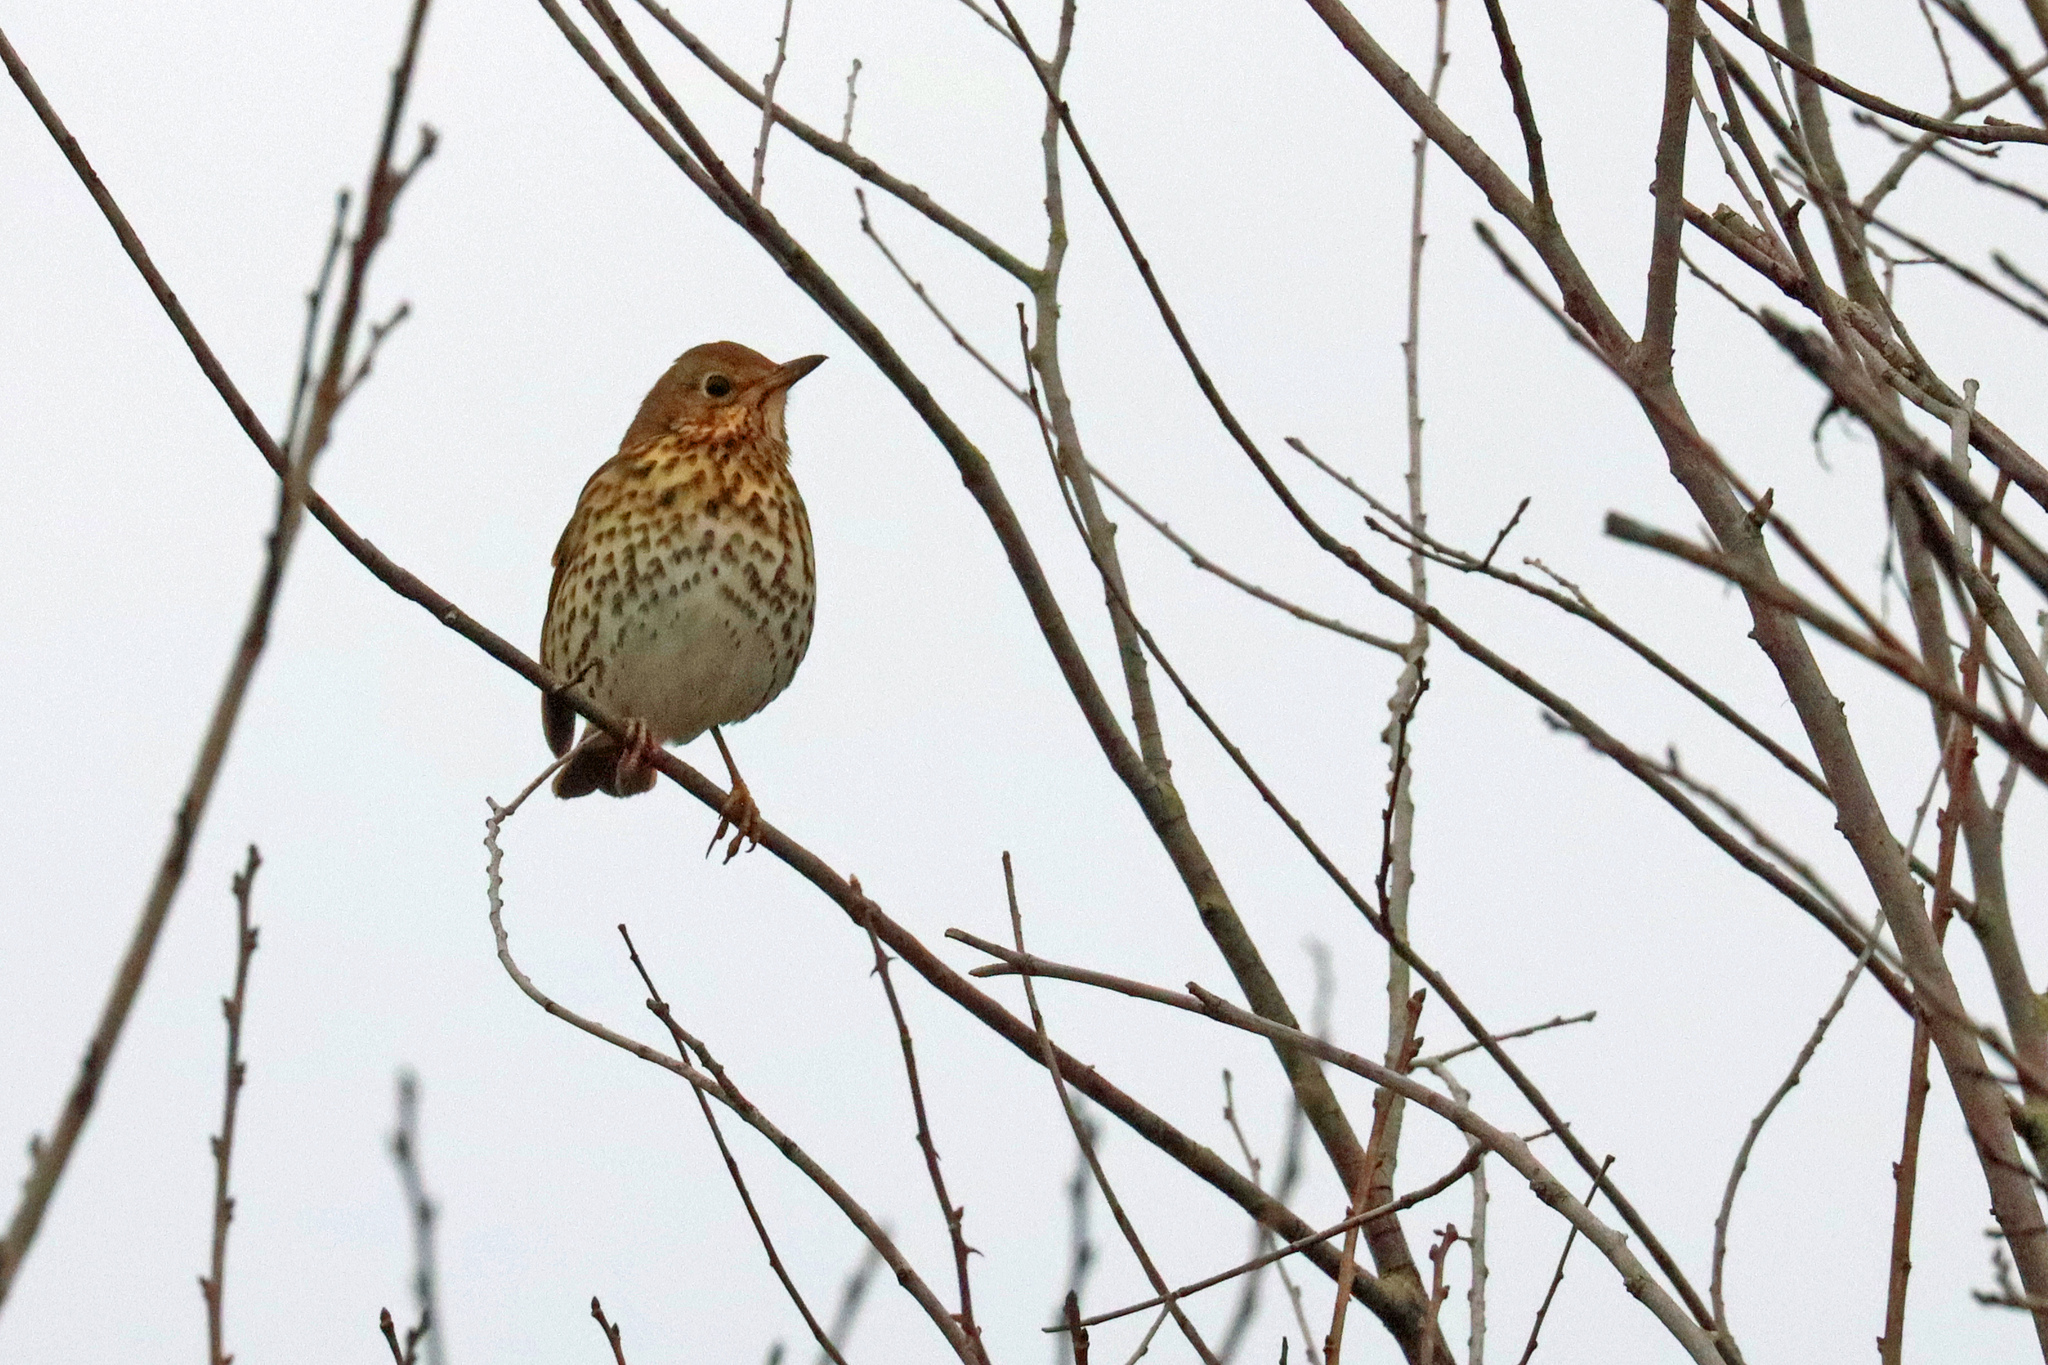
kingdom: Animalia
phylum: Chordata
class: Aves
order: Passeriformes
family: Turdidae
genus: Turdus
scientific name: Turdus philomelos
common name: Song thrush
